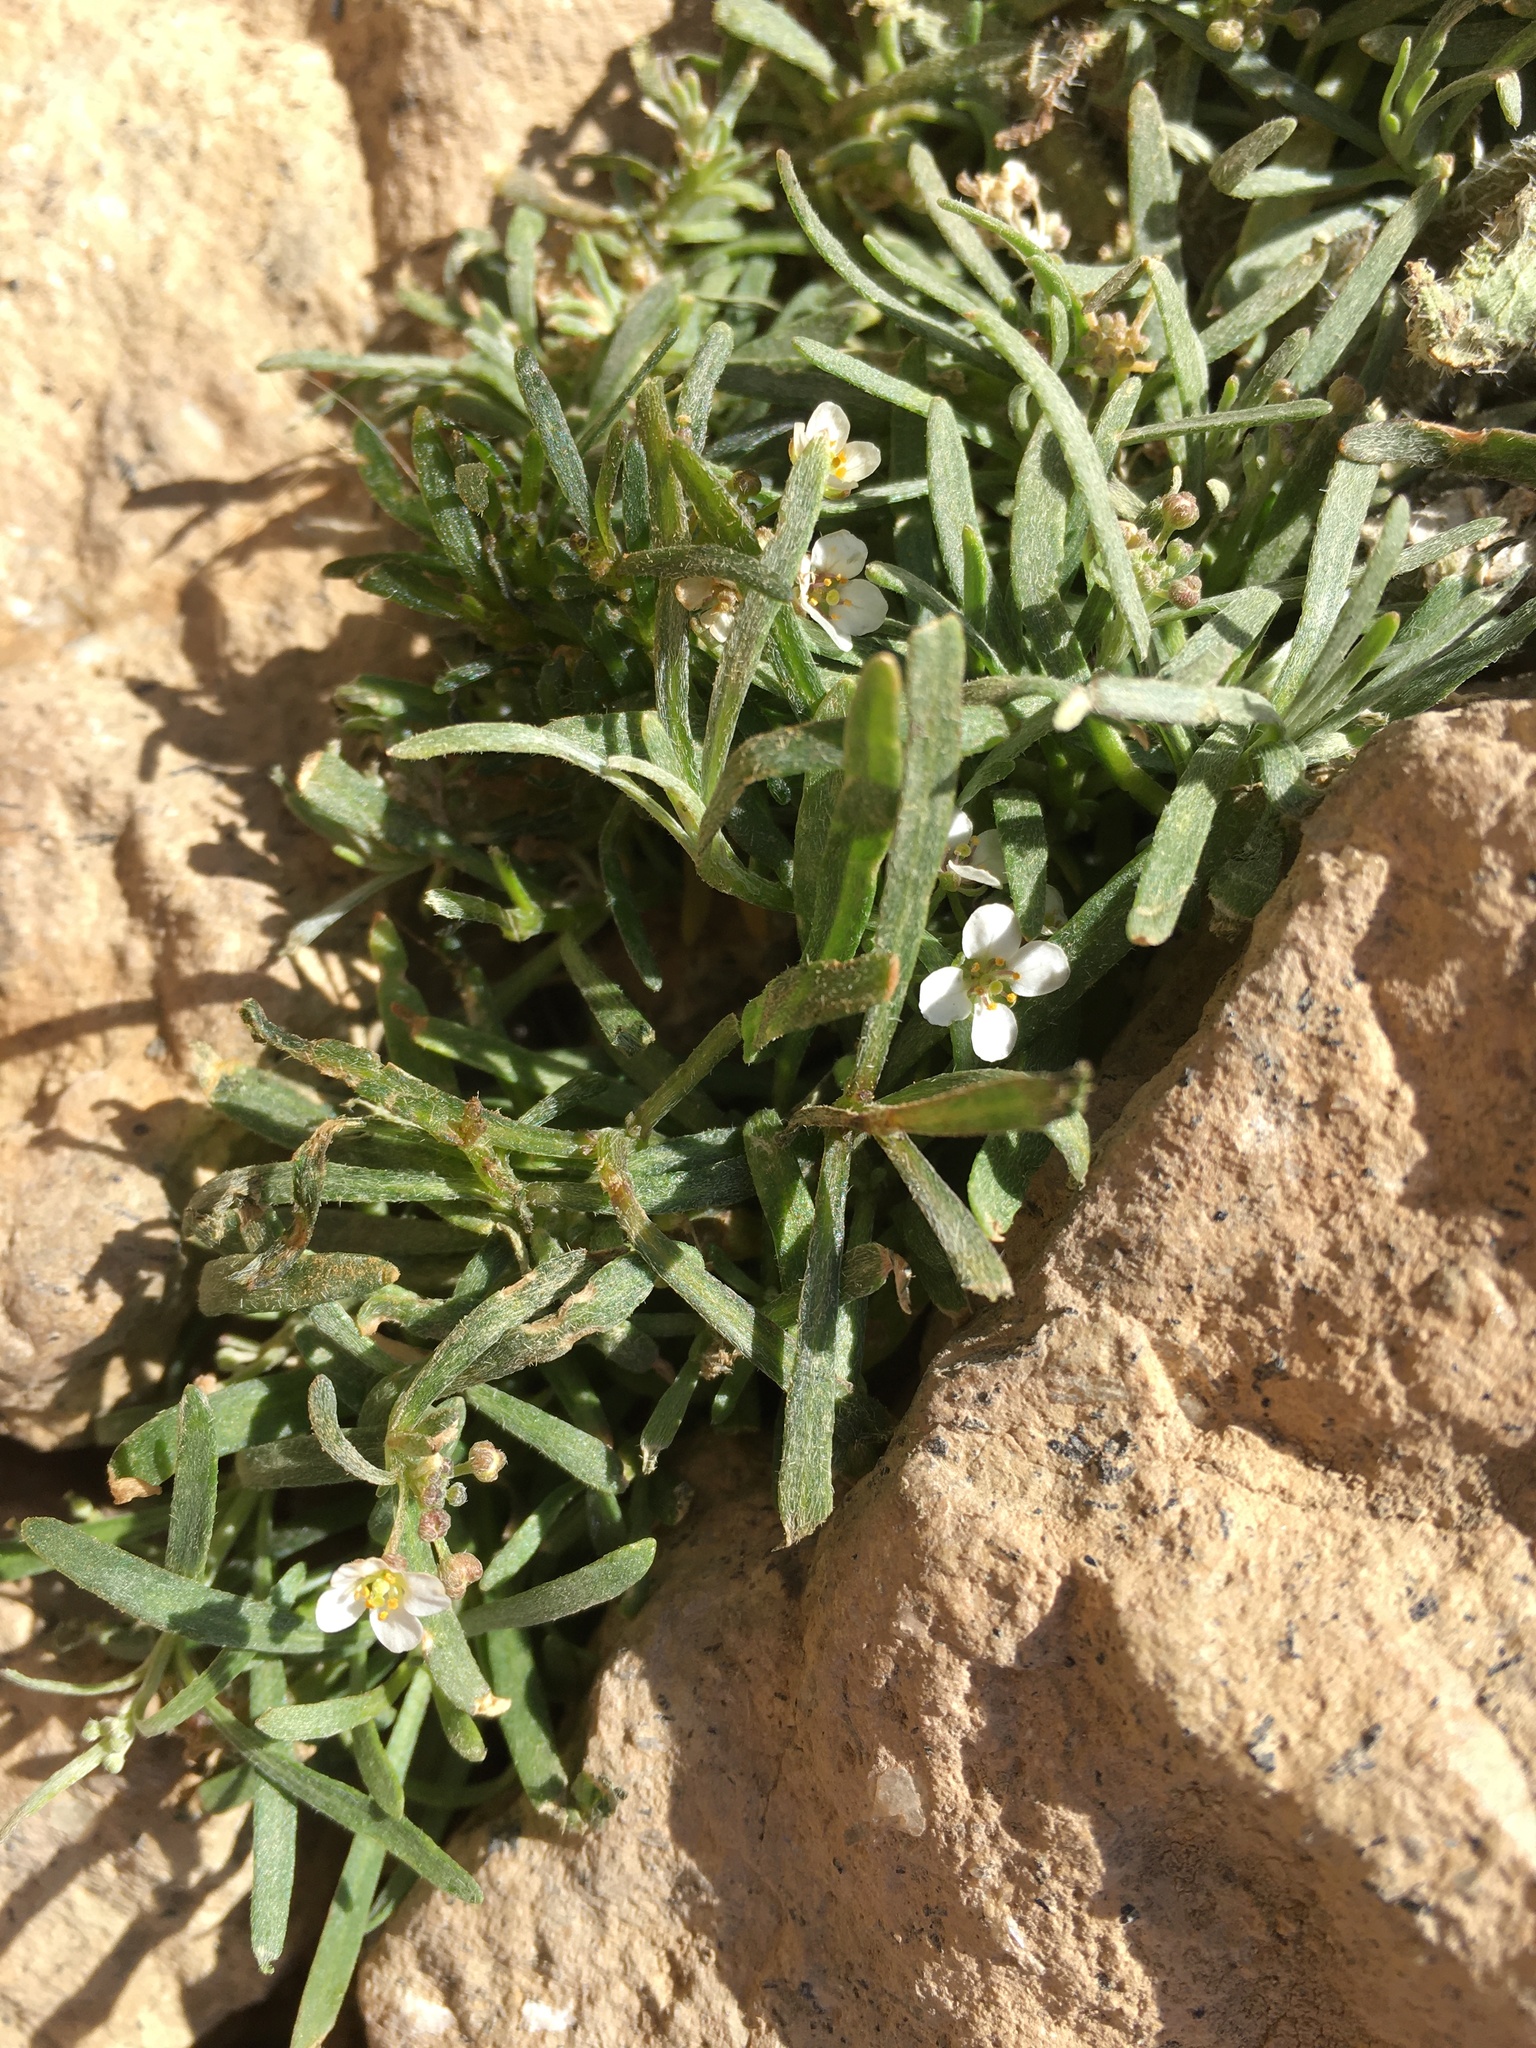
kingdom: Plantae
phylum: Tracheophyta
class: Magnoliopsida
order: Brassicales
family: Brassicaceae
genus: Lobularia
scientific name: Lobularia canariensis
